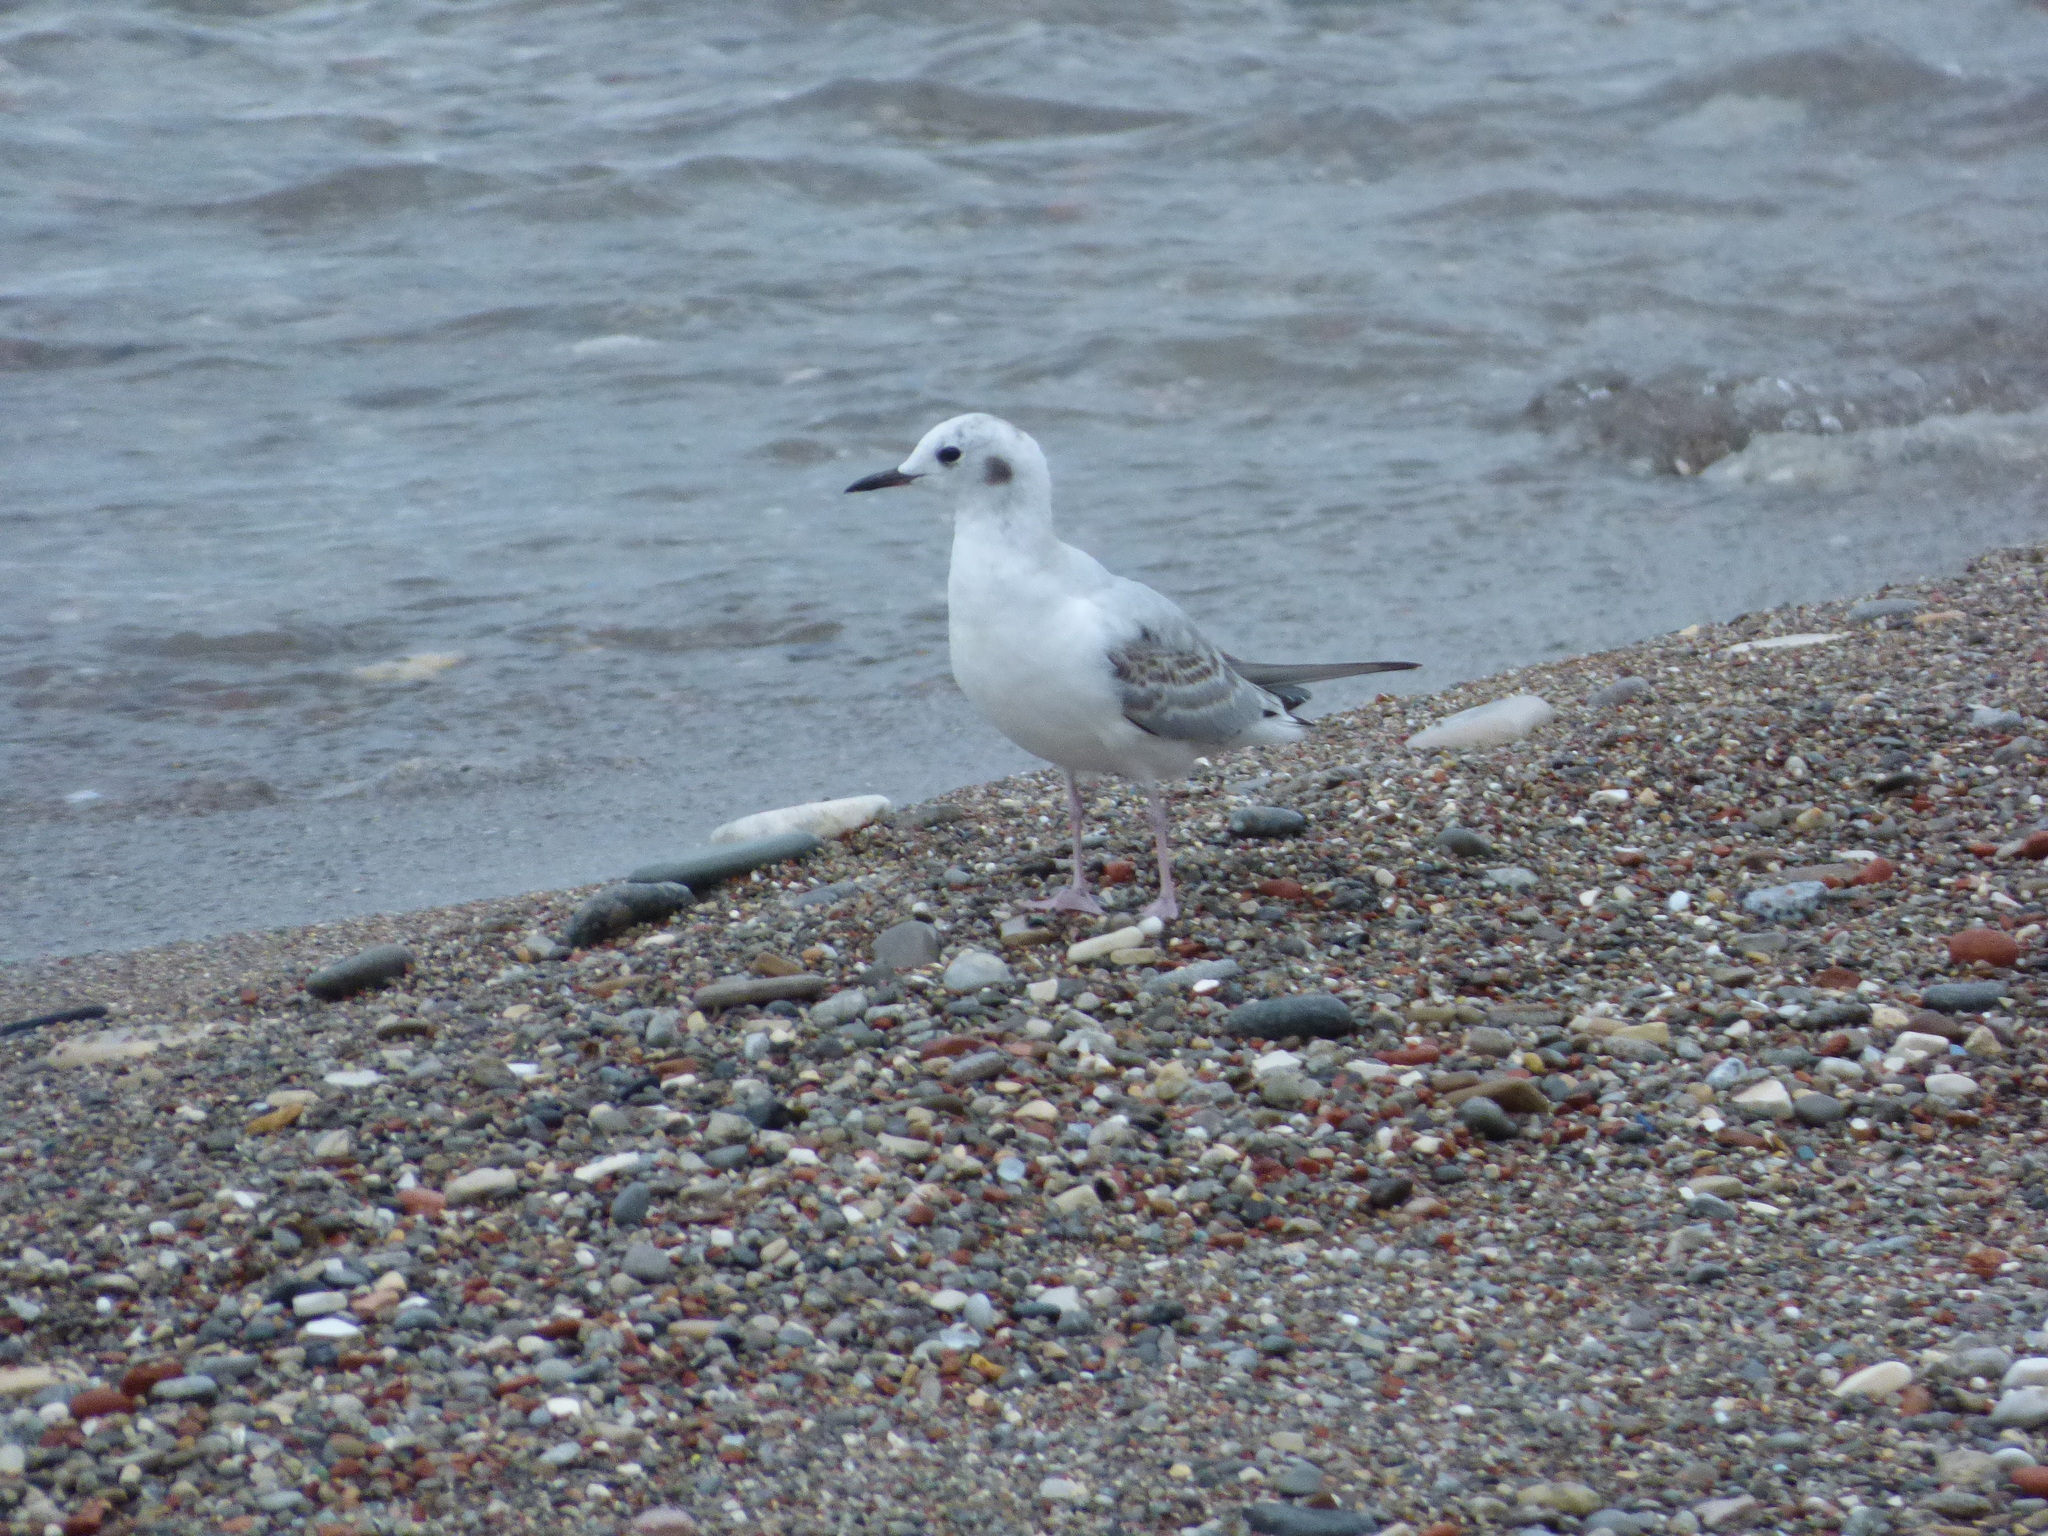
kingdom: Animalia
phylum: Chordata
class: Aves
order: Charadriiformes
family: Laridae
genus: Chroicocephalus
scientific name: Chroicocephalus philadelphia
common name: Bonaparte's gull
